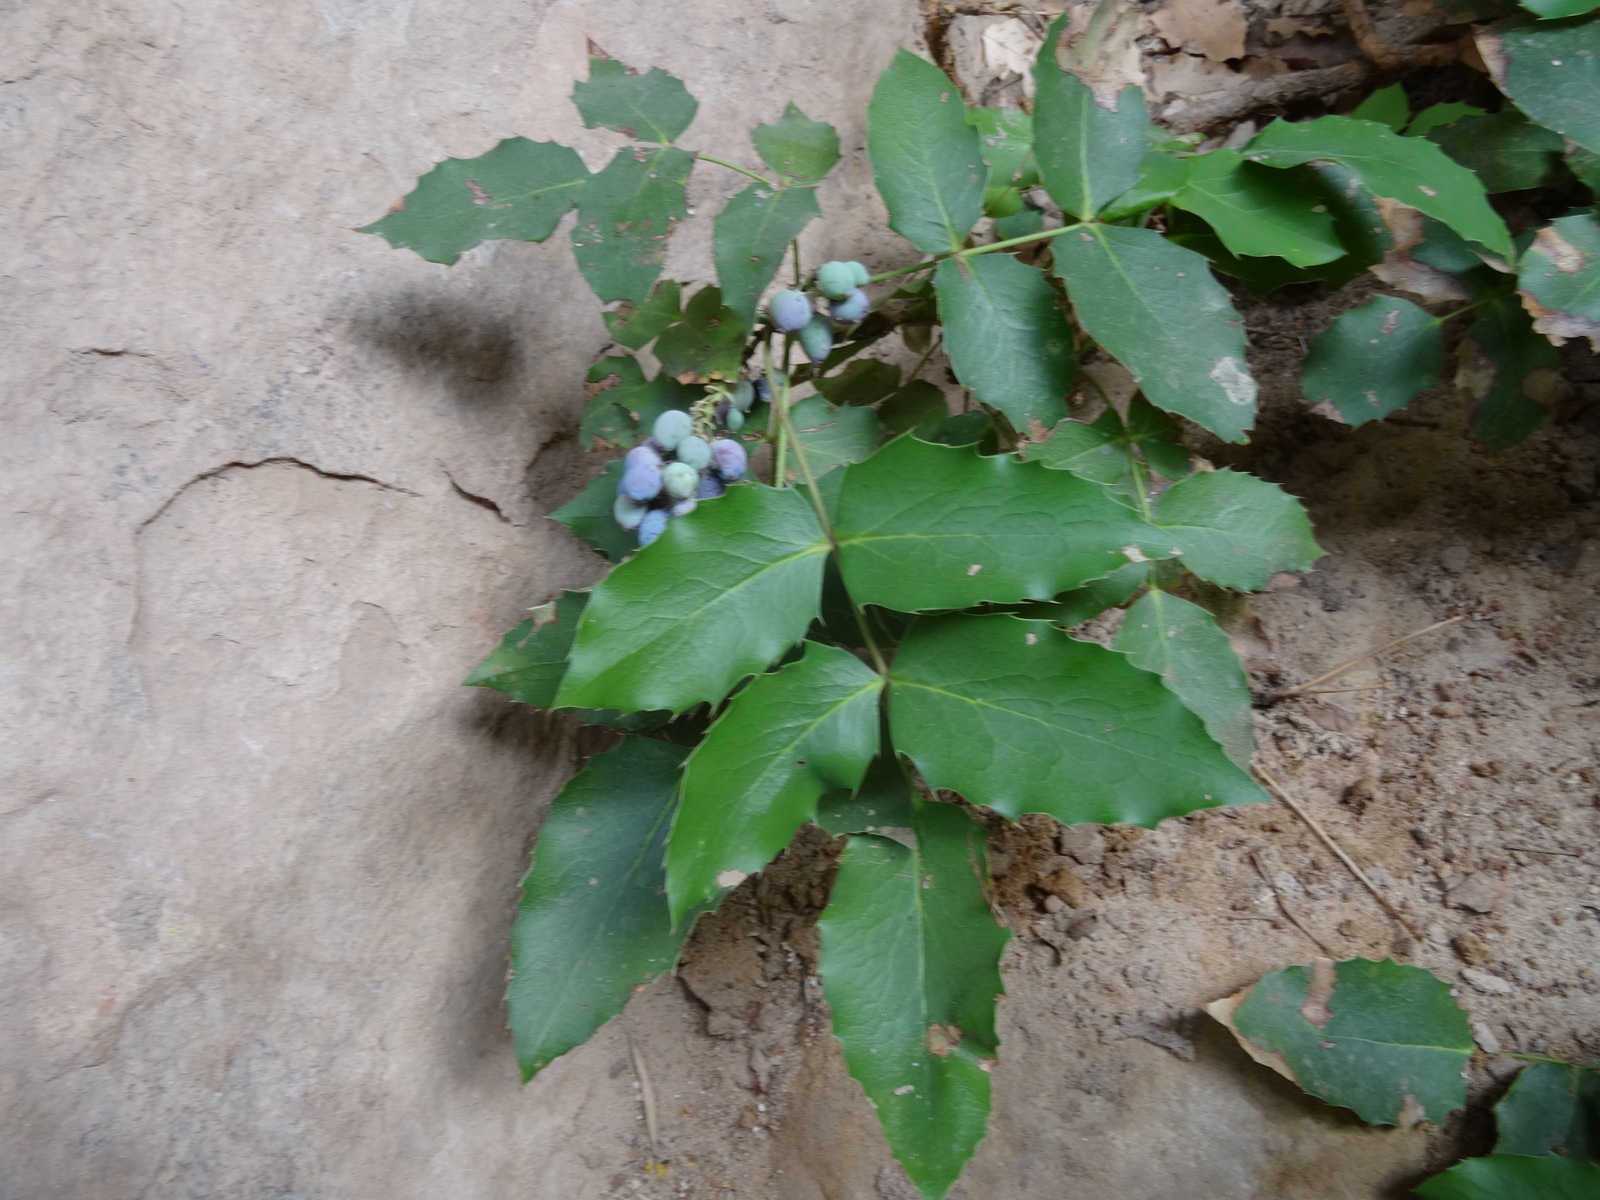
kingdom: Plantae
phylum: Tracheophyta
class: Magnoliopsida
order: Ranunculales
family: Berberidaceae
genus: Mahonia
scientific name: Mahonia repens
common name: Creeping oregon-grape
